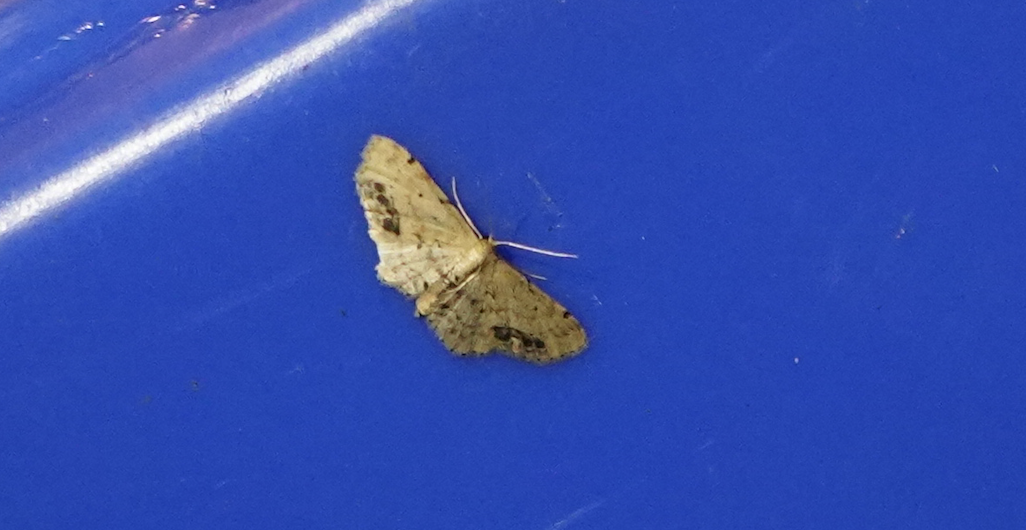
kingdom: Animalia
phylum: Arthropoda
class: Insecta
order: Lepidoptera
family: Geometridae
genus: Idaea
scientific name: Idaea dimidiata
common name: Single-dotted wave
